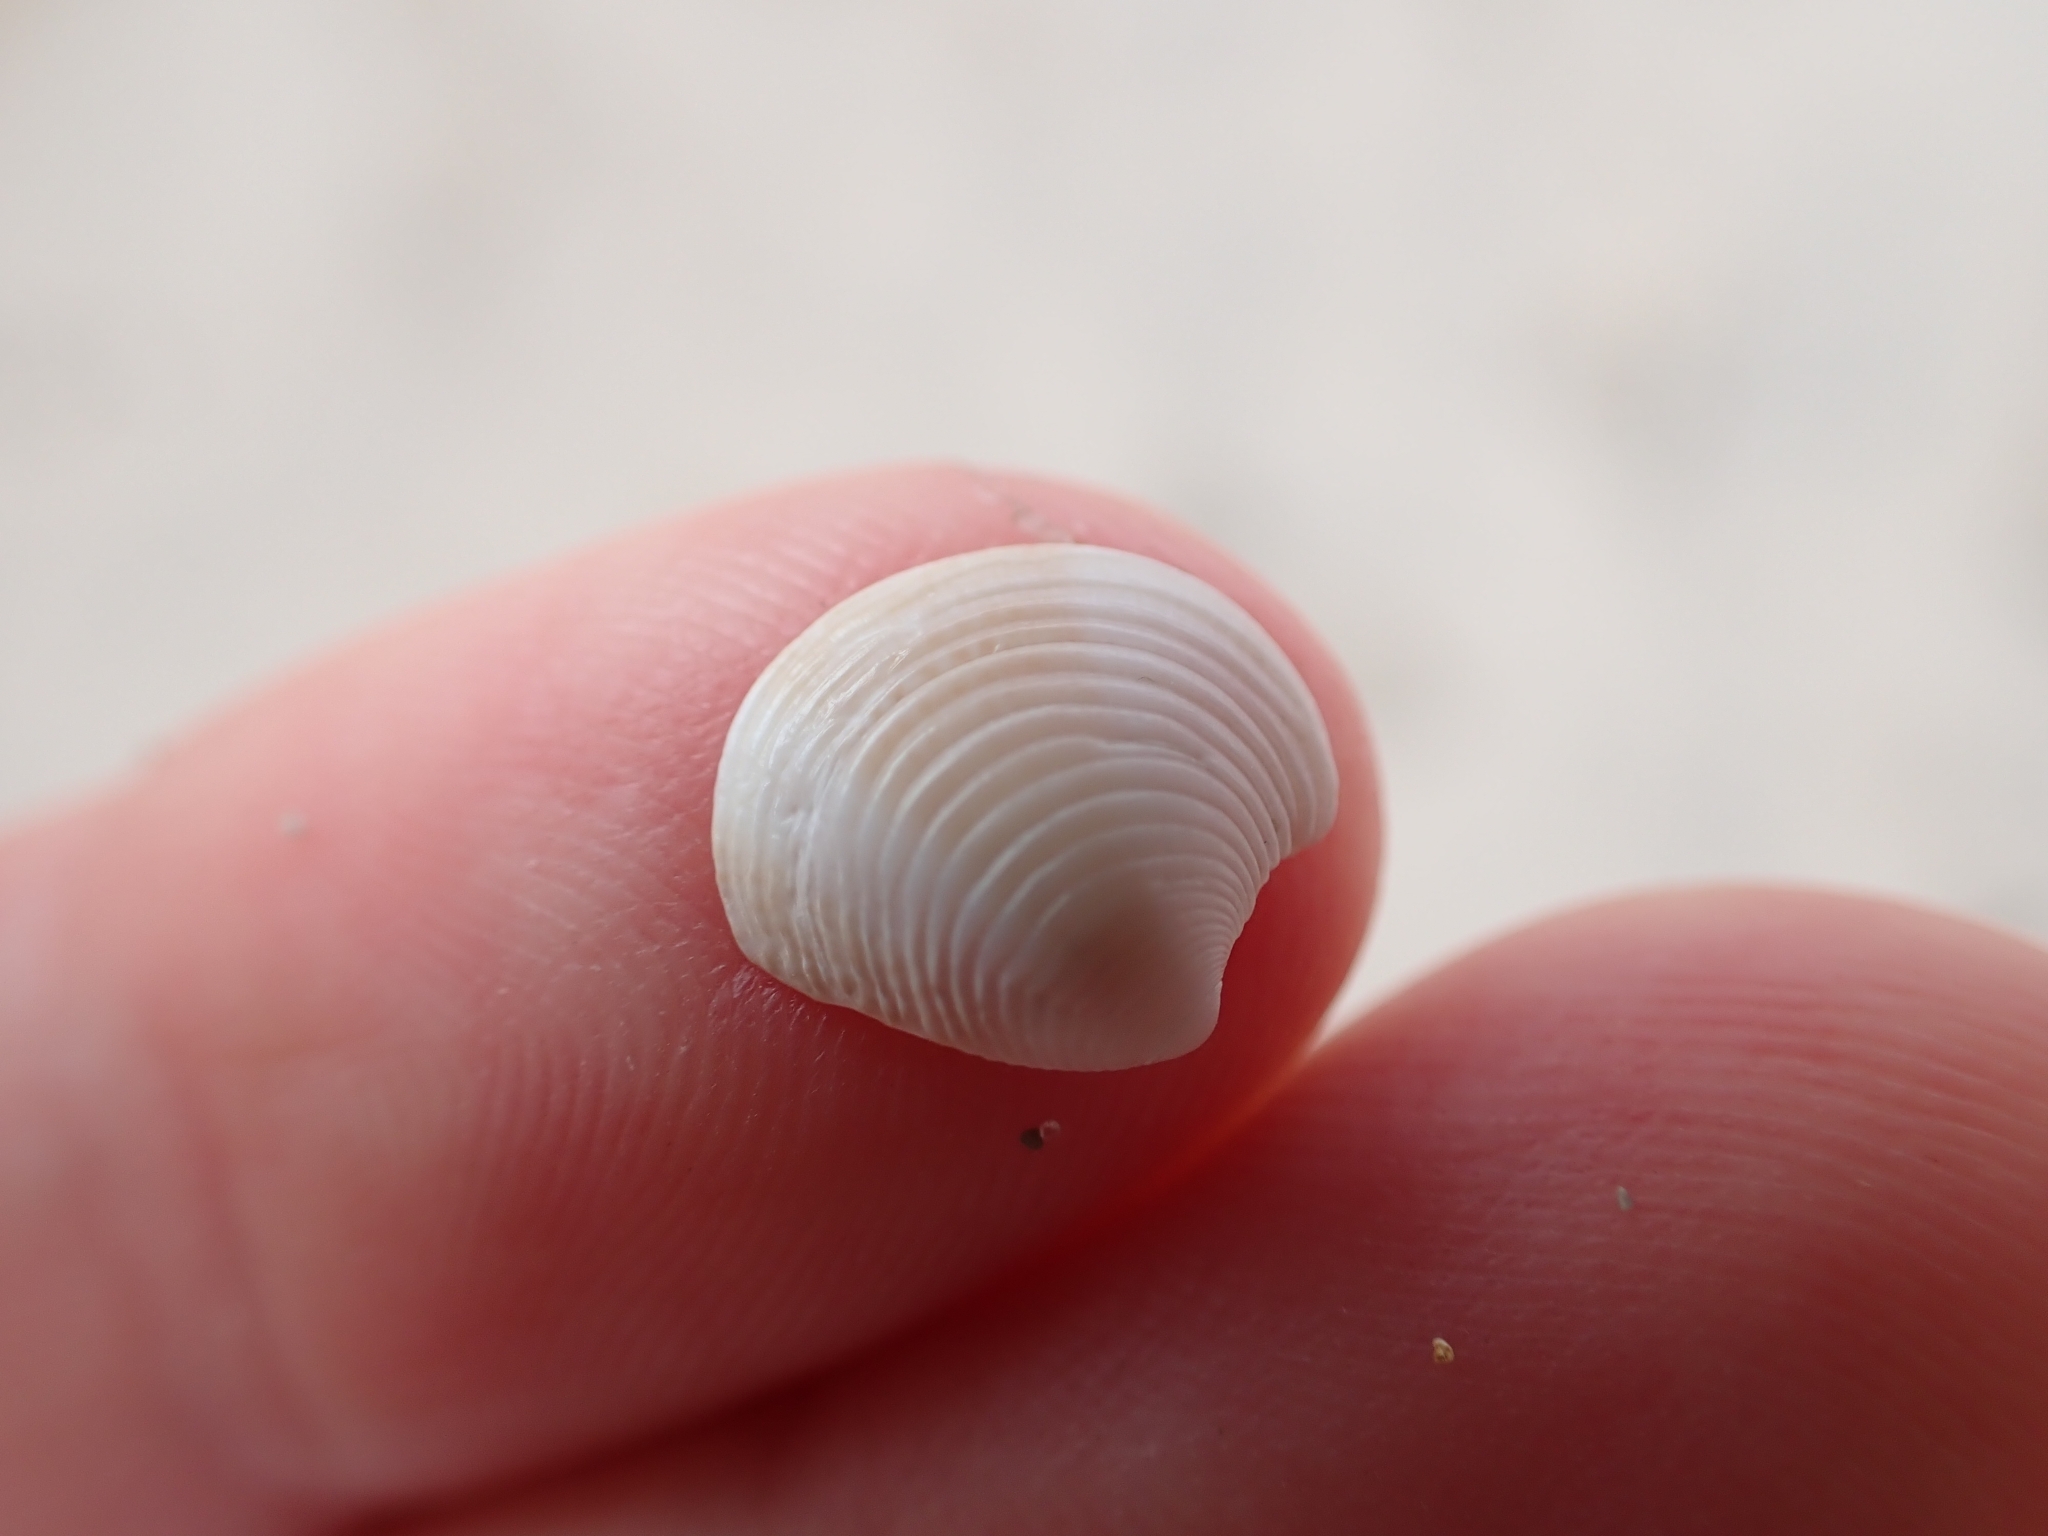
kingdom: Animalia
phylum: Mollusca
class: Bivalvia
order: Venerida
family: Veneridae
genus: Chamelea
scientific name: Chamelea gallina
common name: Chicken venus
